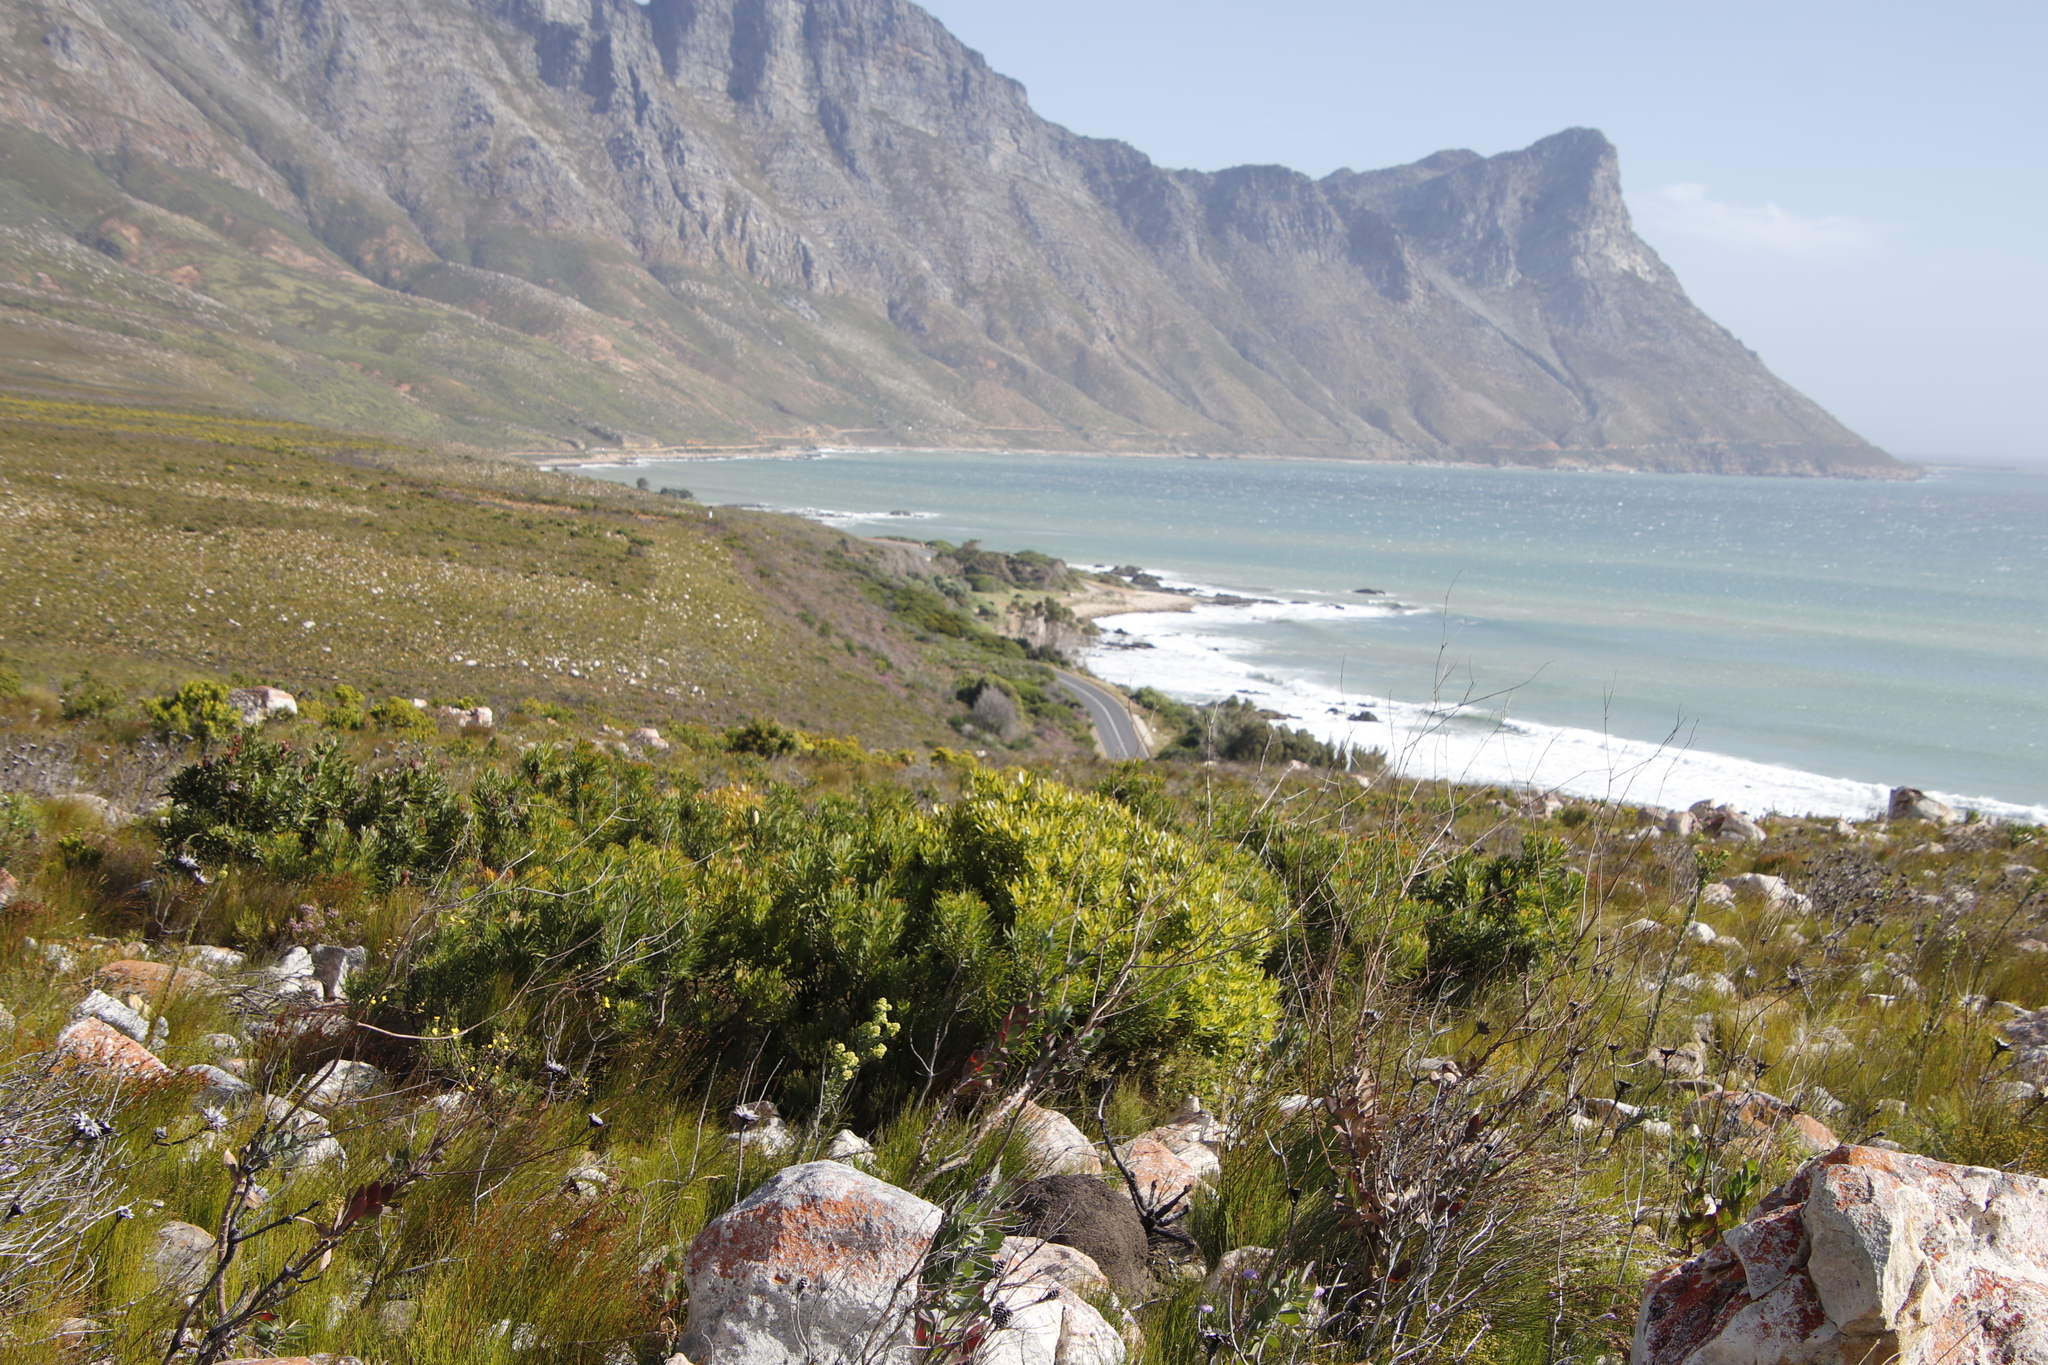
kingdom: Plantae
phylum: Tracheophyta
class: Magnoliopsida
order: Proteales
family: Proteaceae
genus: Leucadendron
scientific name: Leucadendron laureolum
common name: Golden sunshinebush
